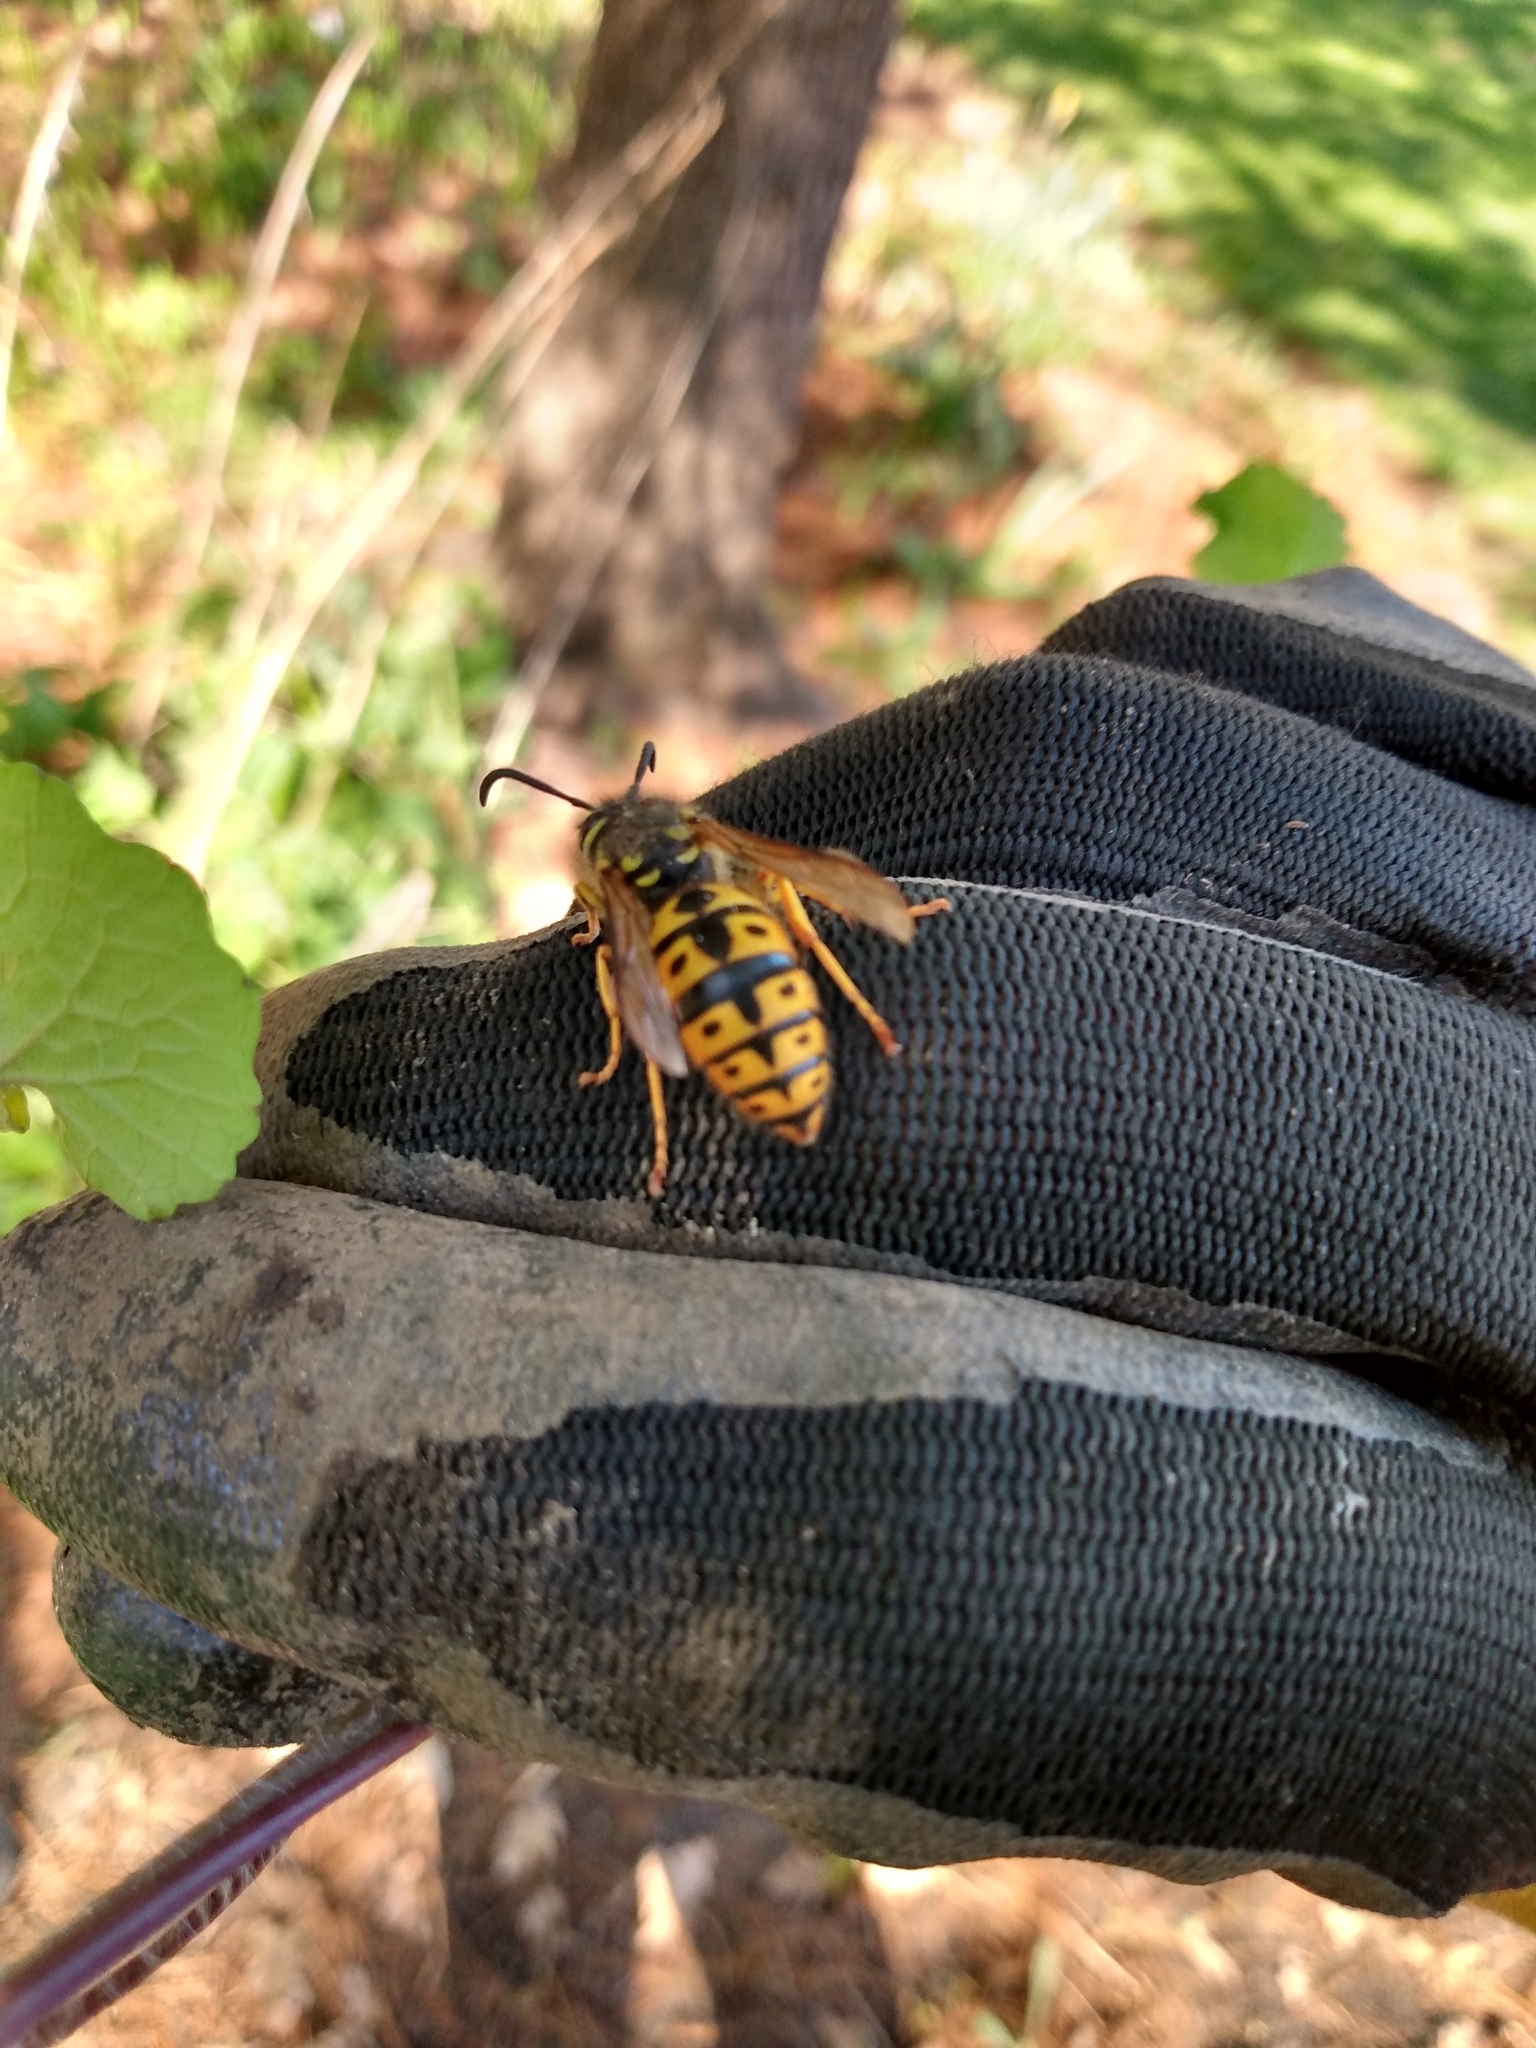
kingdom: Animalia
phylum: Arthropoda
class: Insecta
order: Hymenoptera
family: Vespidae
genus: Vespula
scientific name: Vespula germanica
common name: German wasp
